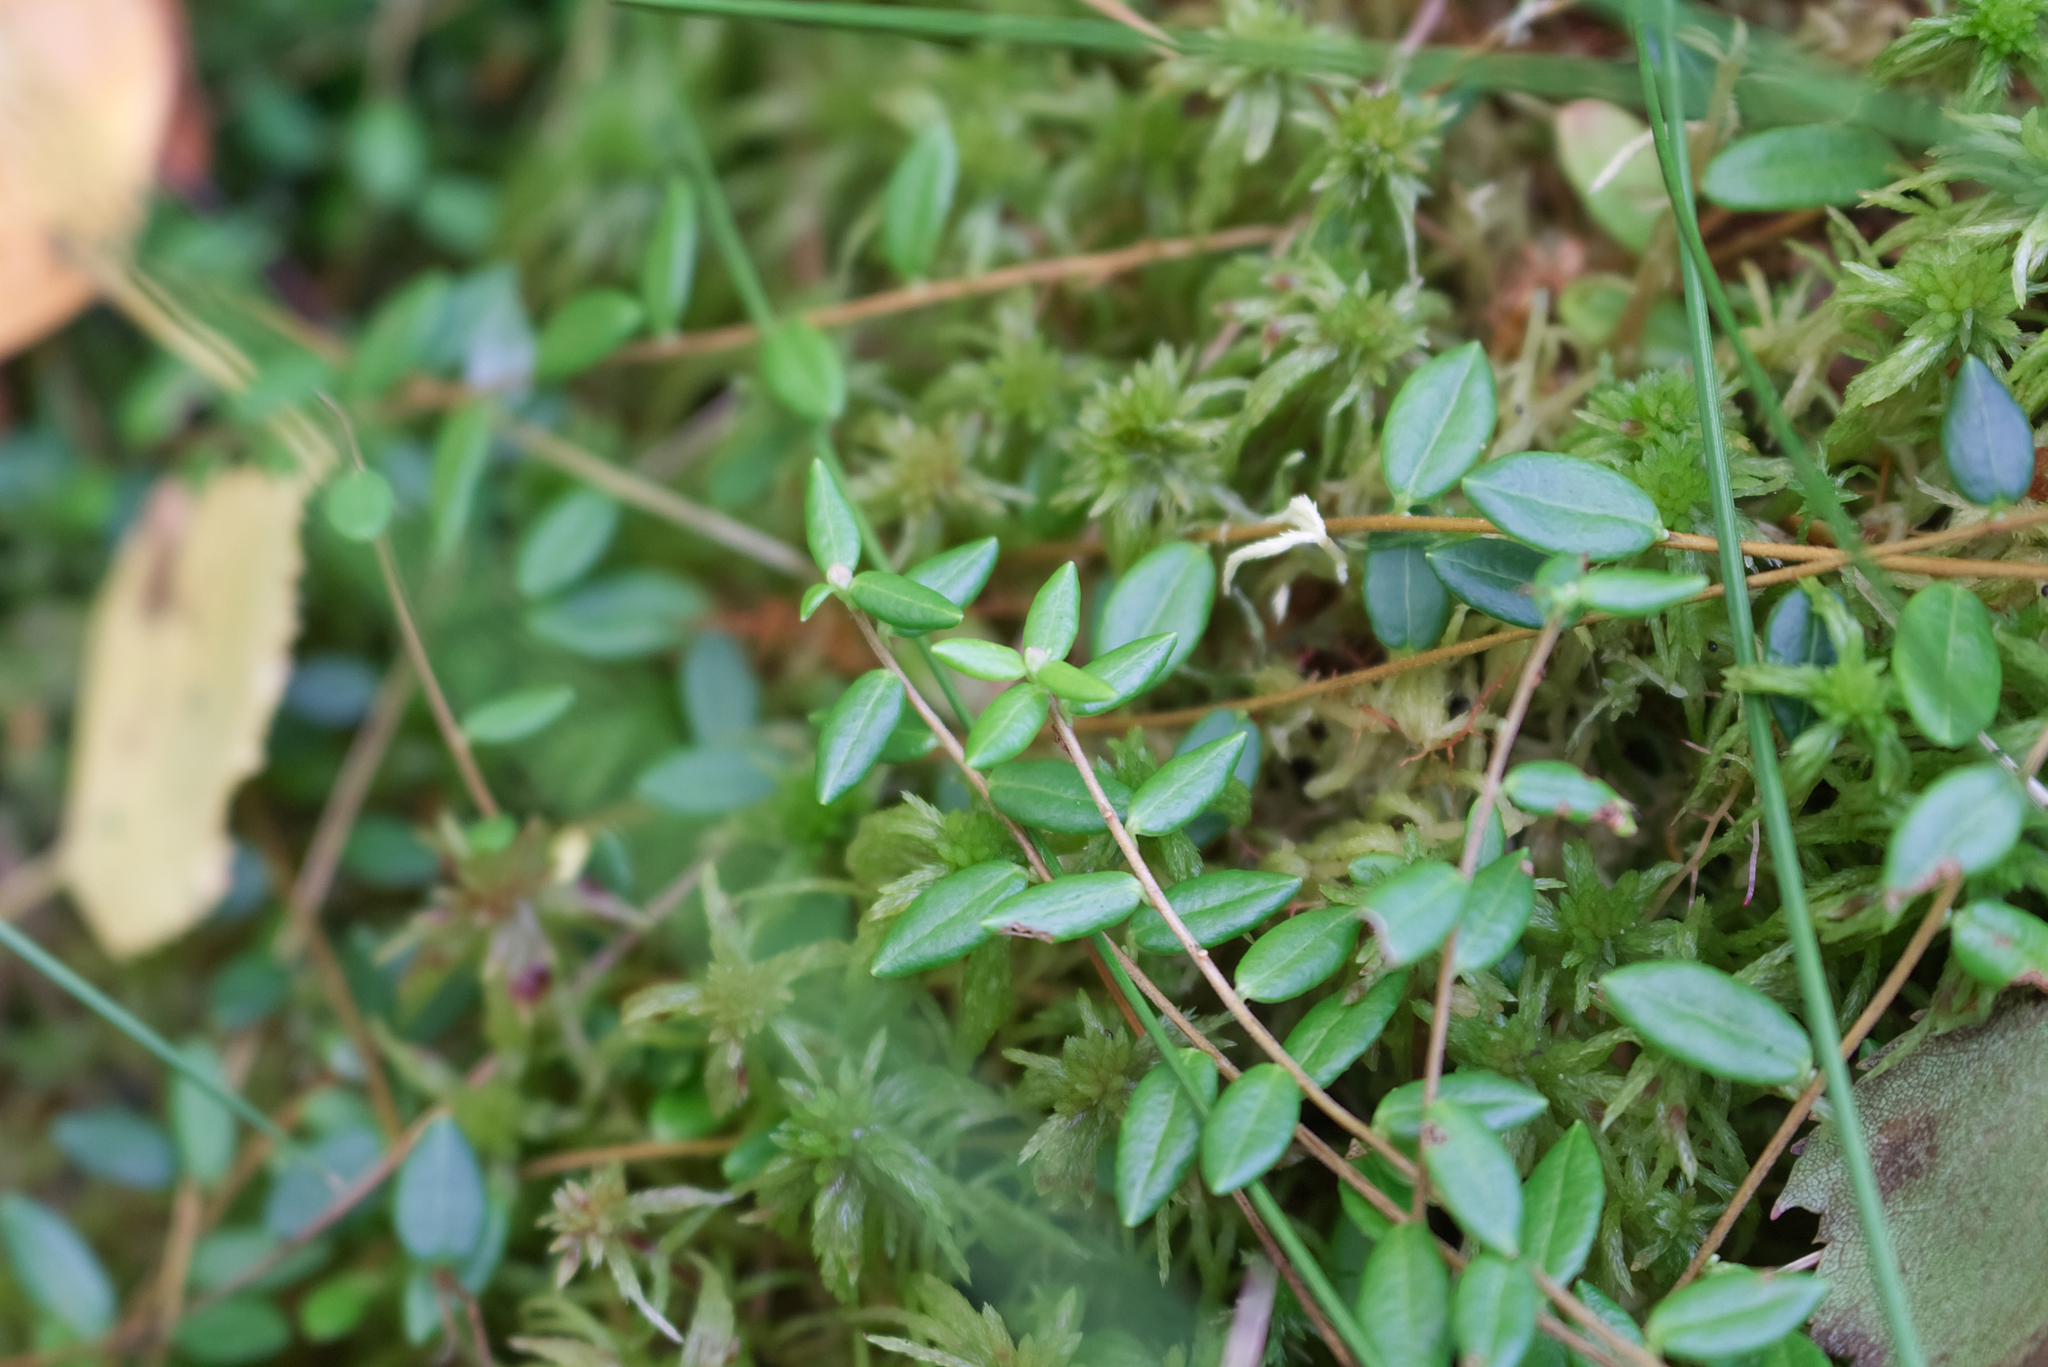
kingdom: Plantae
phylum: Tracheophyta
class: Magnoliopsida
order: Ericales
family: Ericaceae
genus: Vaccinium
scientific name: Vaccinium oxycoccos
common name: Cranberry
